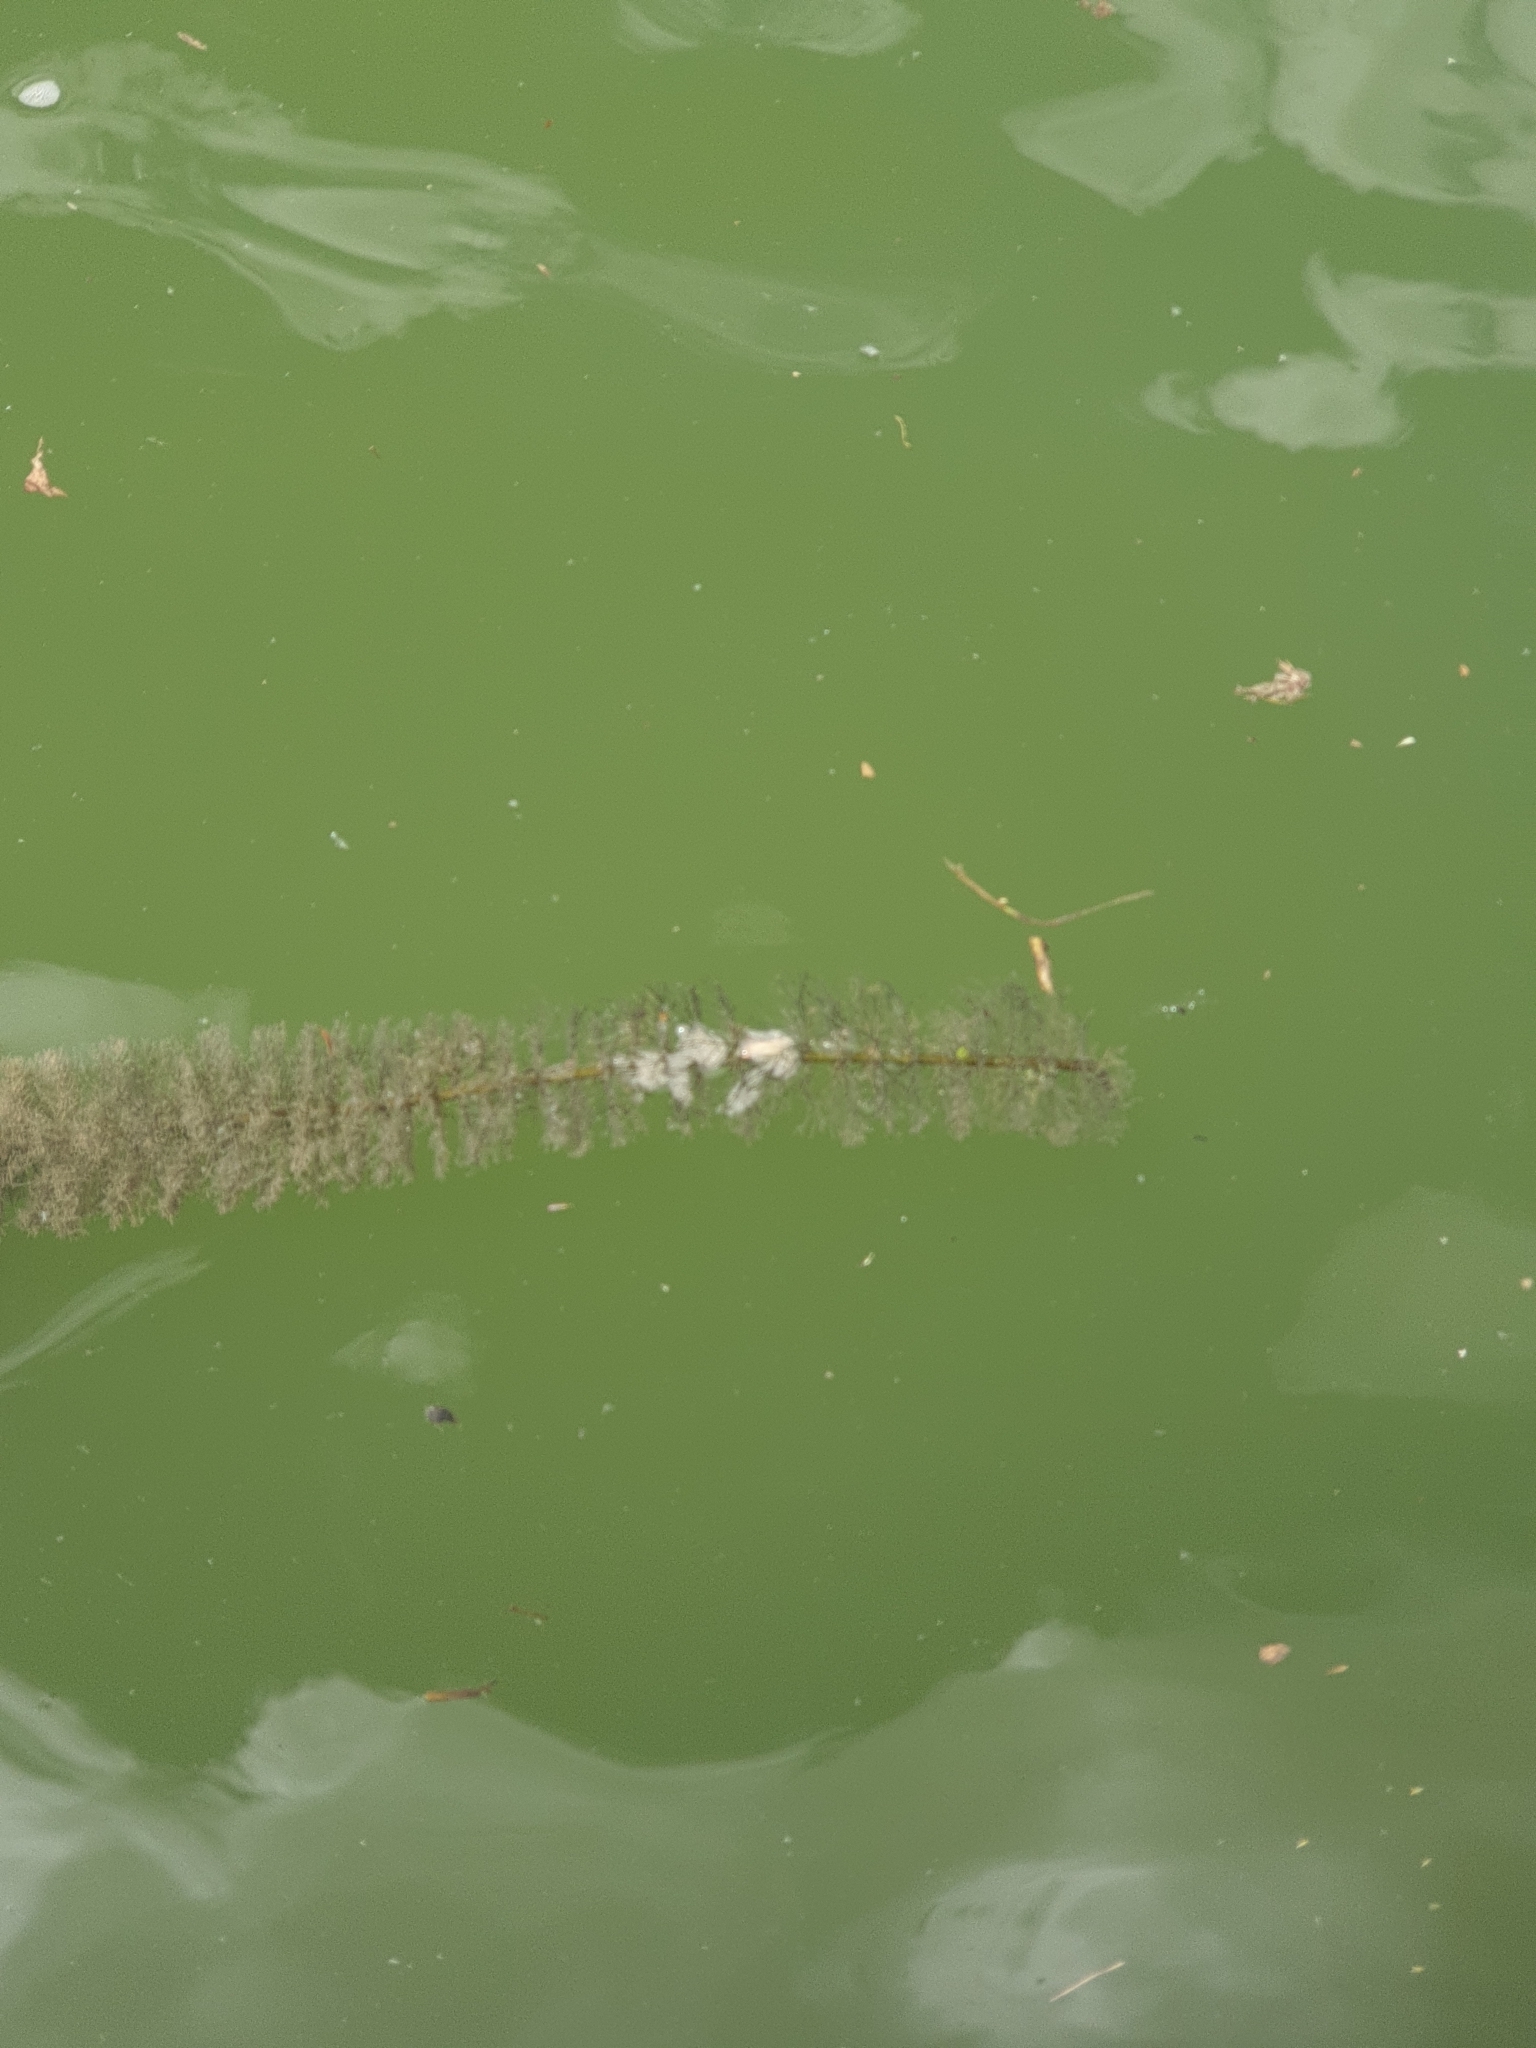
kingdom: Plantae
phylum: Tracheophyta
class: Magnoliopsida
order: Saxifragales
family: Haloragaceae
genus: Myriophyllum
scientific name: Myriophyllum heterophyllum
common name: Variable watermilfoil
